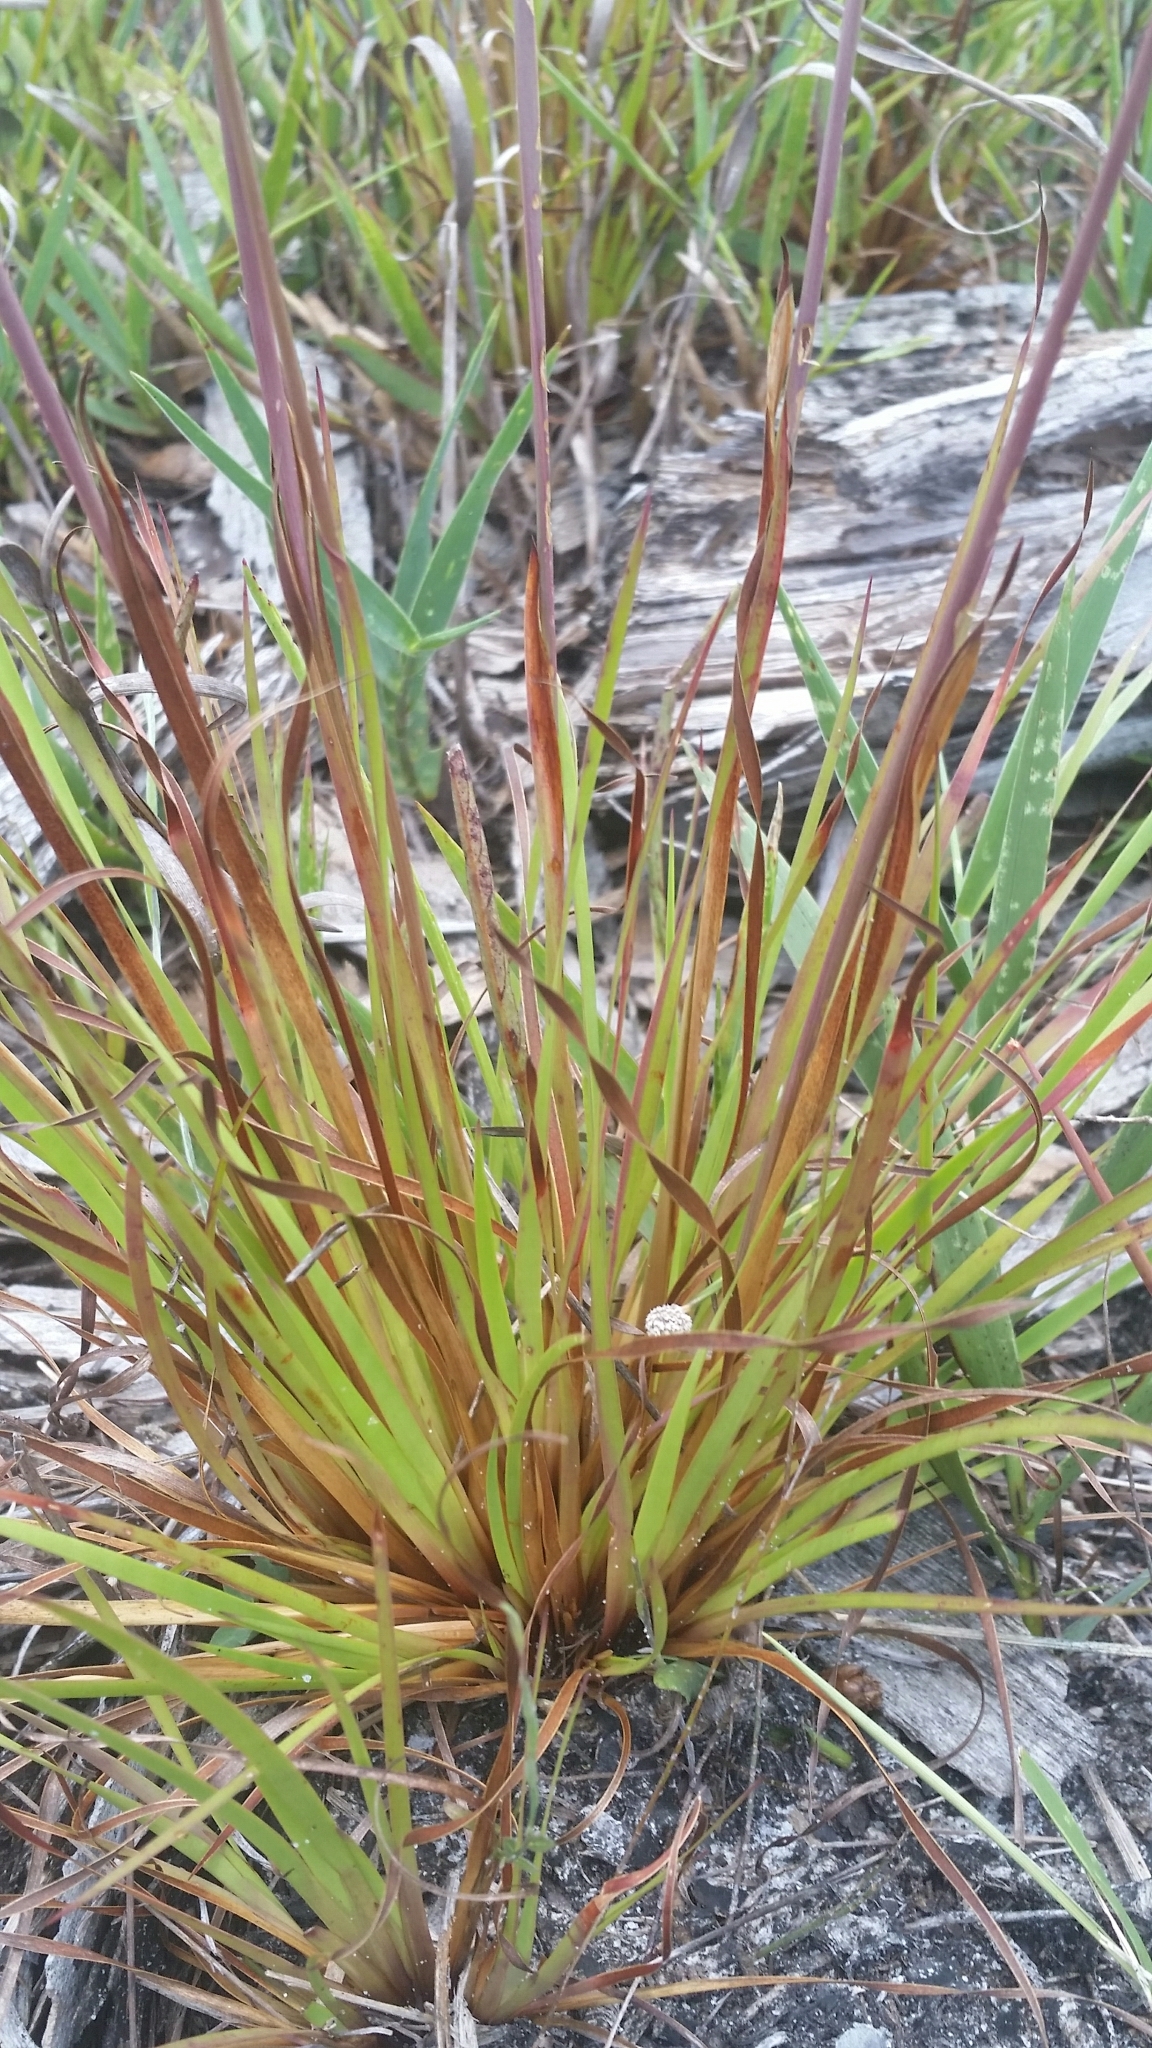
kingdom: Plantae
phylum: Tracheophyta
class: Liliopsida
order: Poales
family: Xyridaceae
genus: Xyris
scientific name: Xyris elliottii
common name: Elliot's yelloweyed grass
